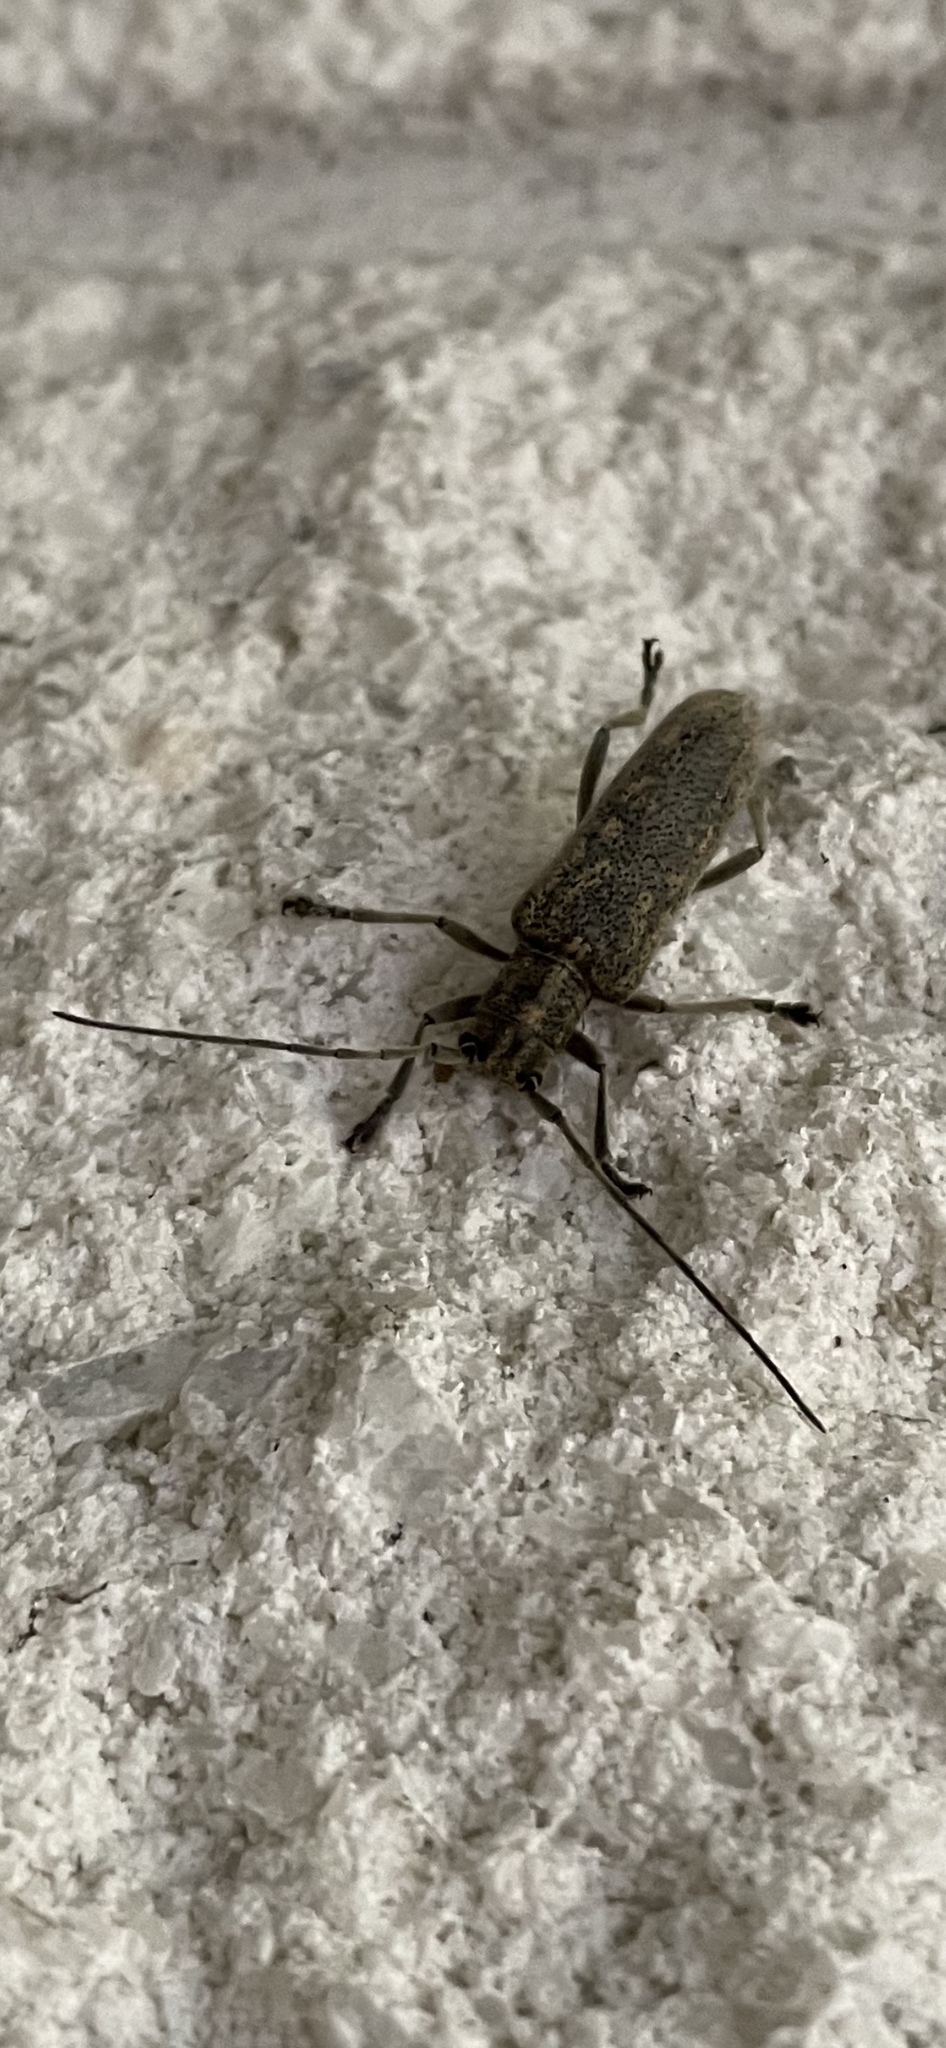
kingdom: Animalia
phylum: Arthropoda
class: Insecta
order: Coleoptera
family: Cerambycidae
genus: Saperda
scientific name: Saperda calcarata
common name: Poplar borer
